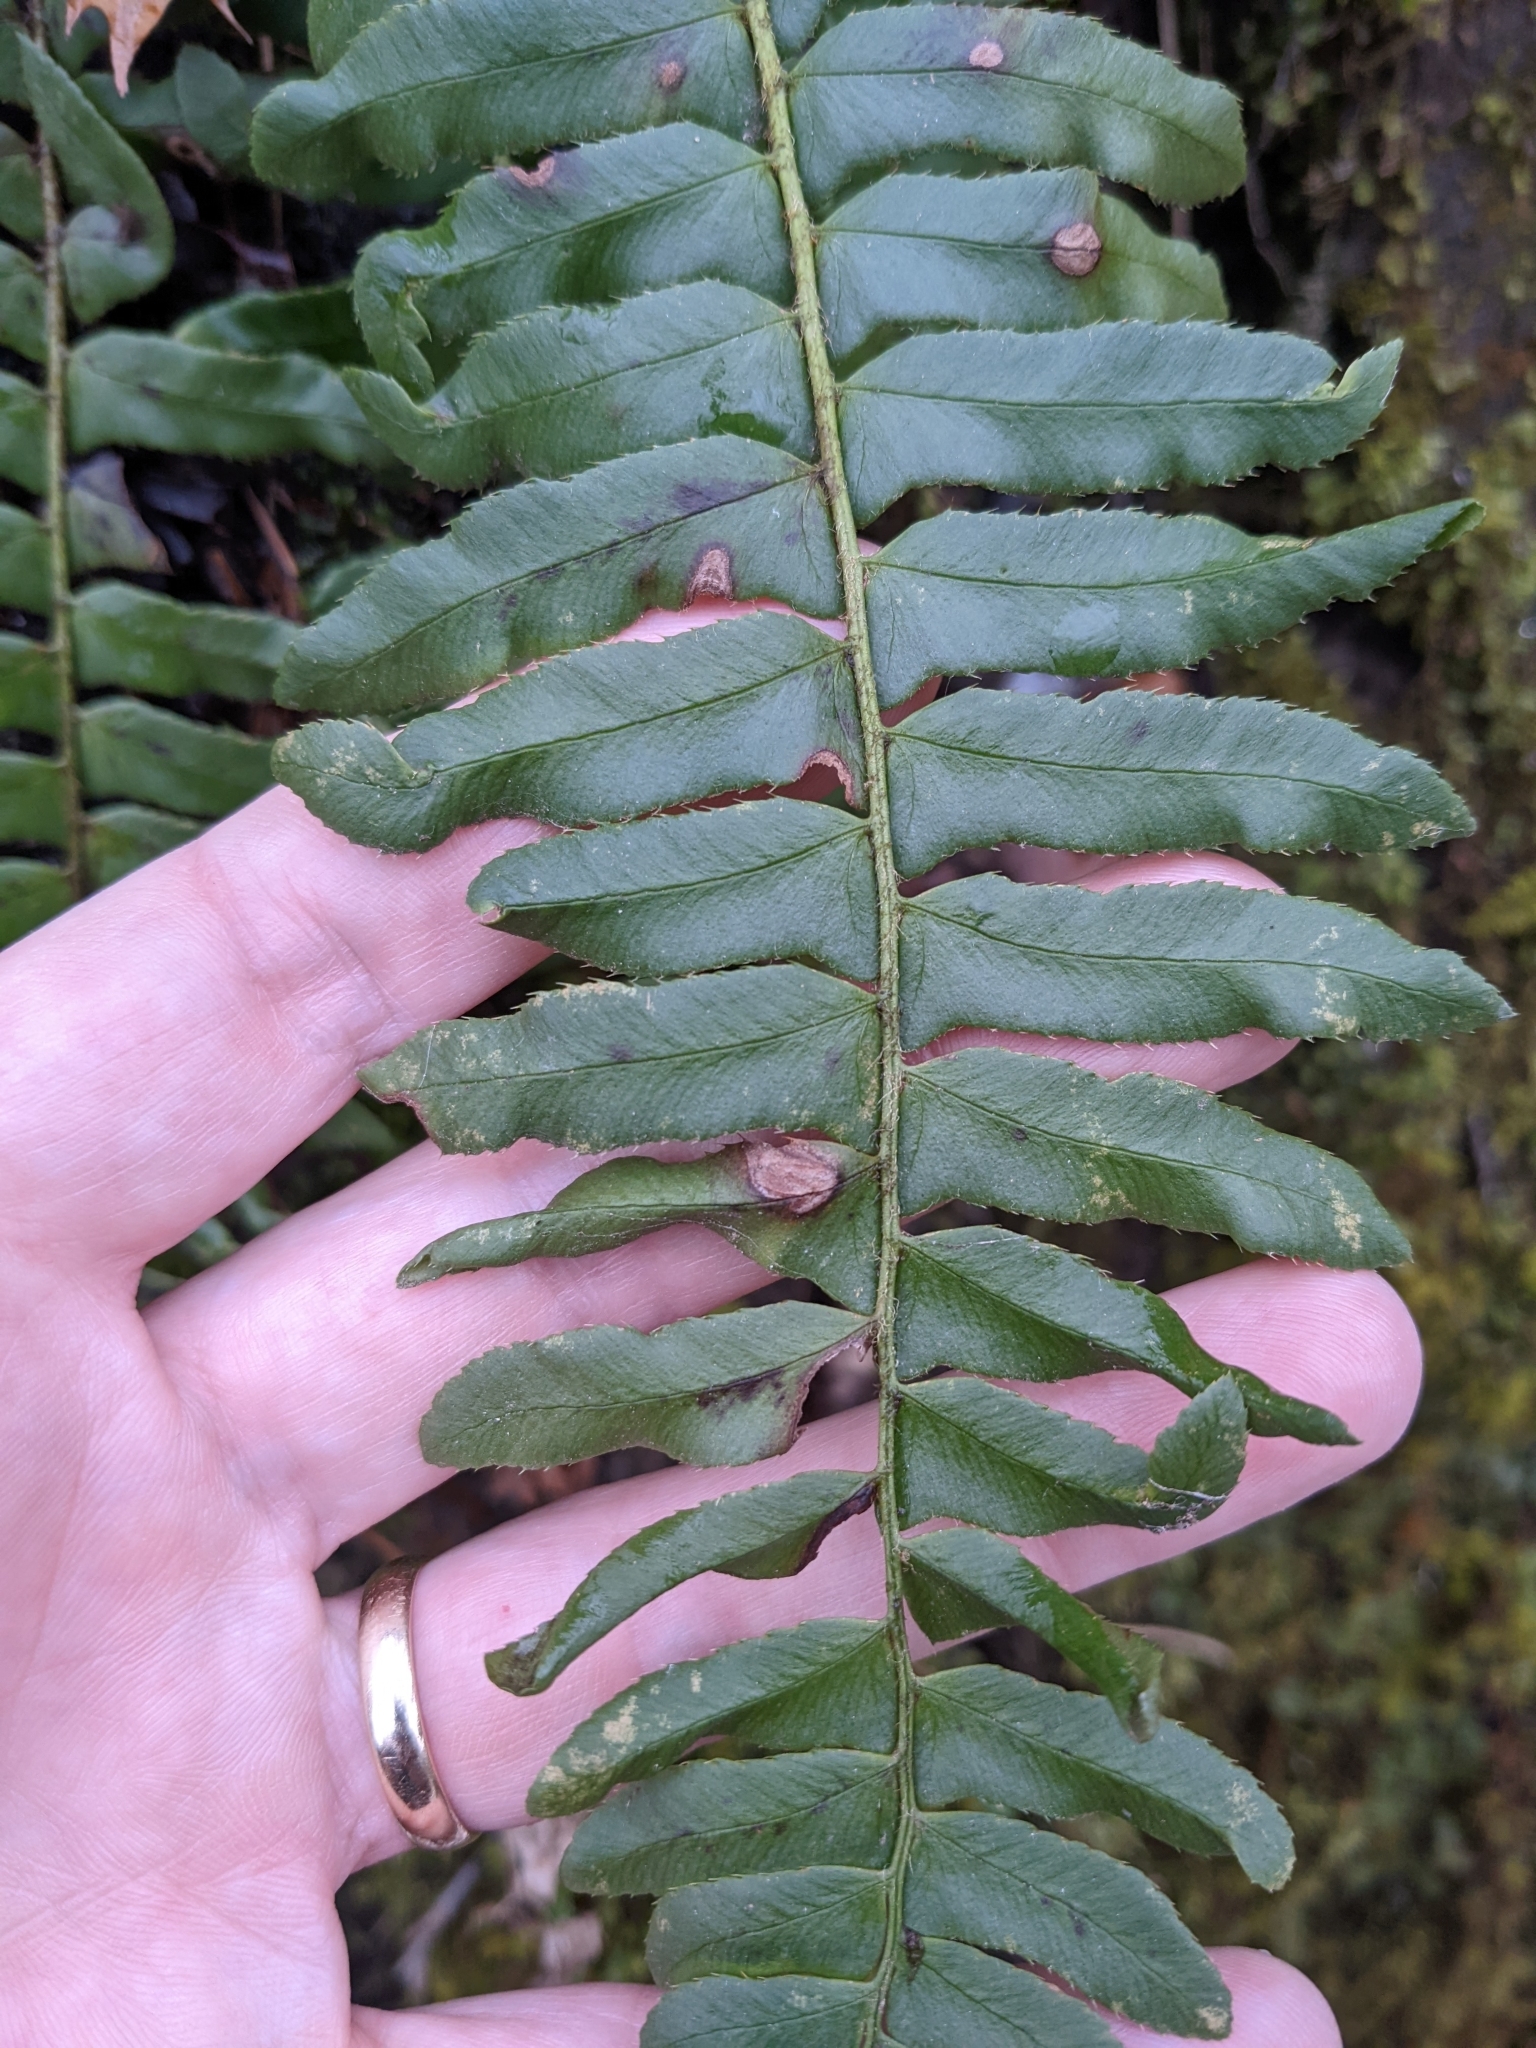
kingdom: Plantae
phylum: Tracheophyta
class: Polypodiopsida
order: Polypodiales
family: Dryopteridaceae
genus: Polystichum
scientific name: Polystichum acrostichoides
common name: Christmas fern
